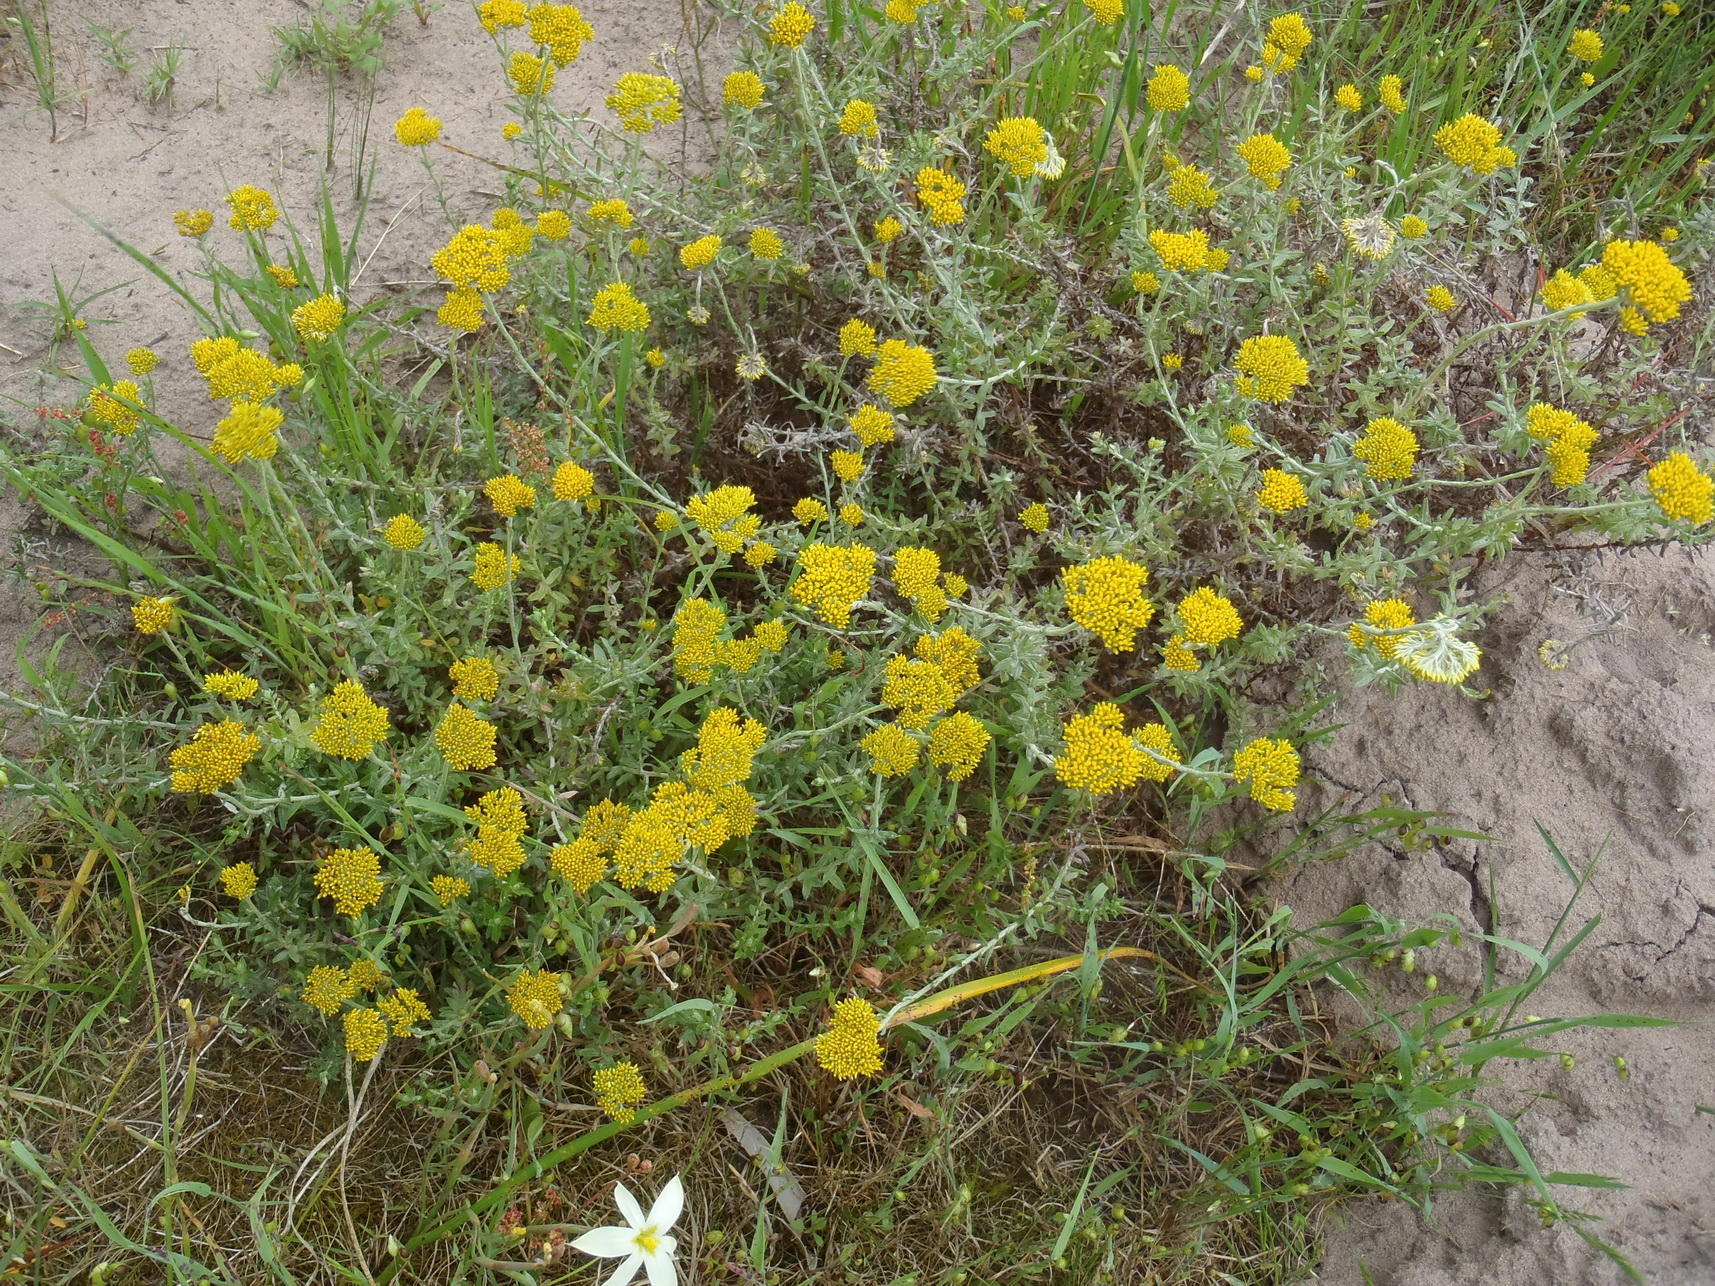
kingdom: Plantae
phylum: Tracheophyta
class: Magnoliopsida
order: Asterales
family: Asteraceae
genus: Helichrysum
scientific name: Helichrysum cymosum
